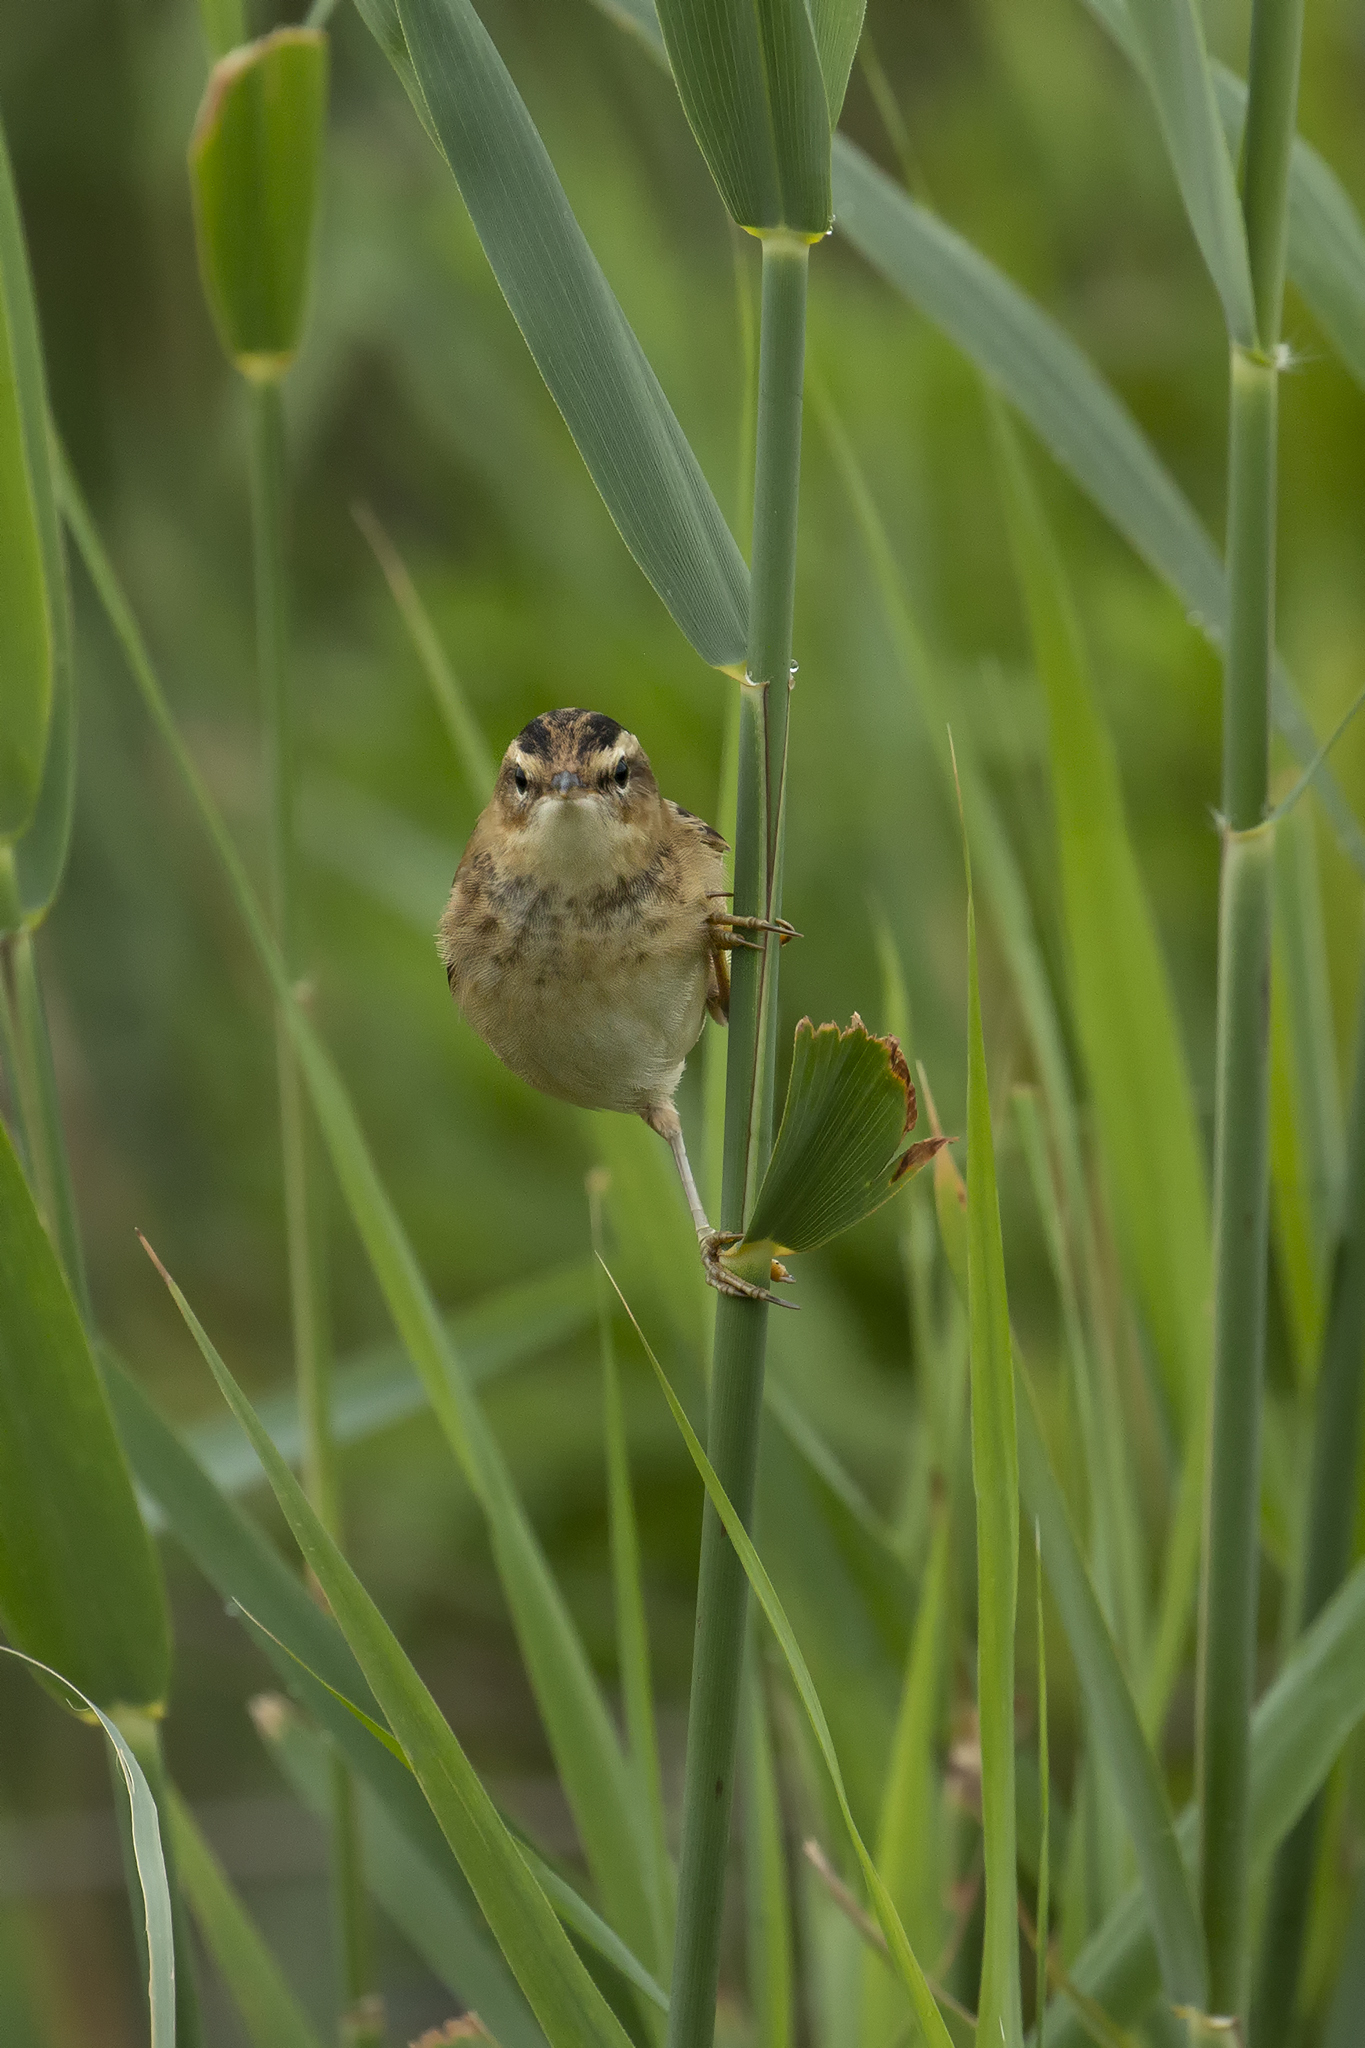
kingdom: Animalia
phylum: Chordata
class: Aves
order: Passeriformes
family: Acrocephalidae
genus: Acrocephalus
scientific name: Acrocephalus schoenobaenus
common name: Sedge warbler
